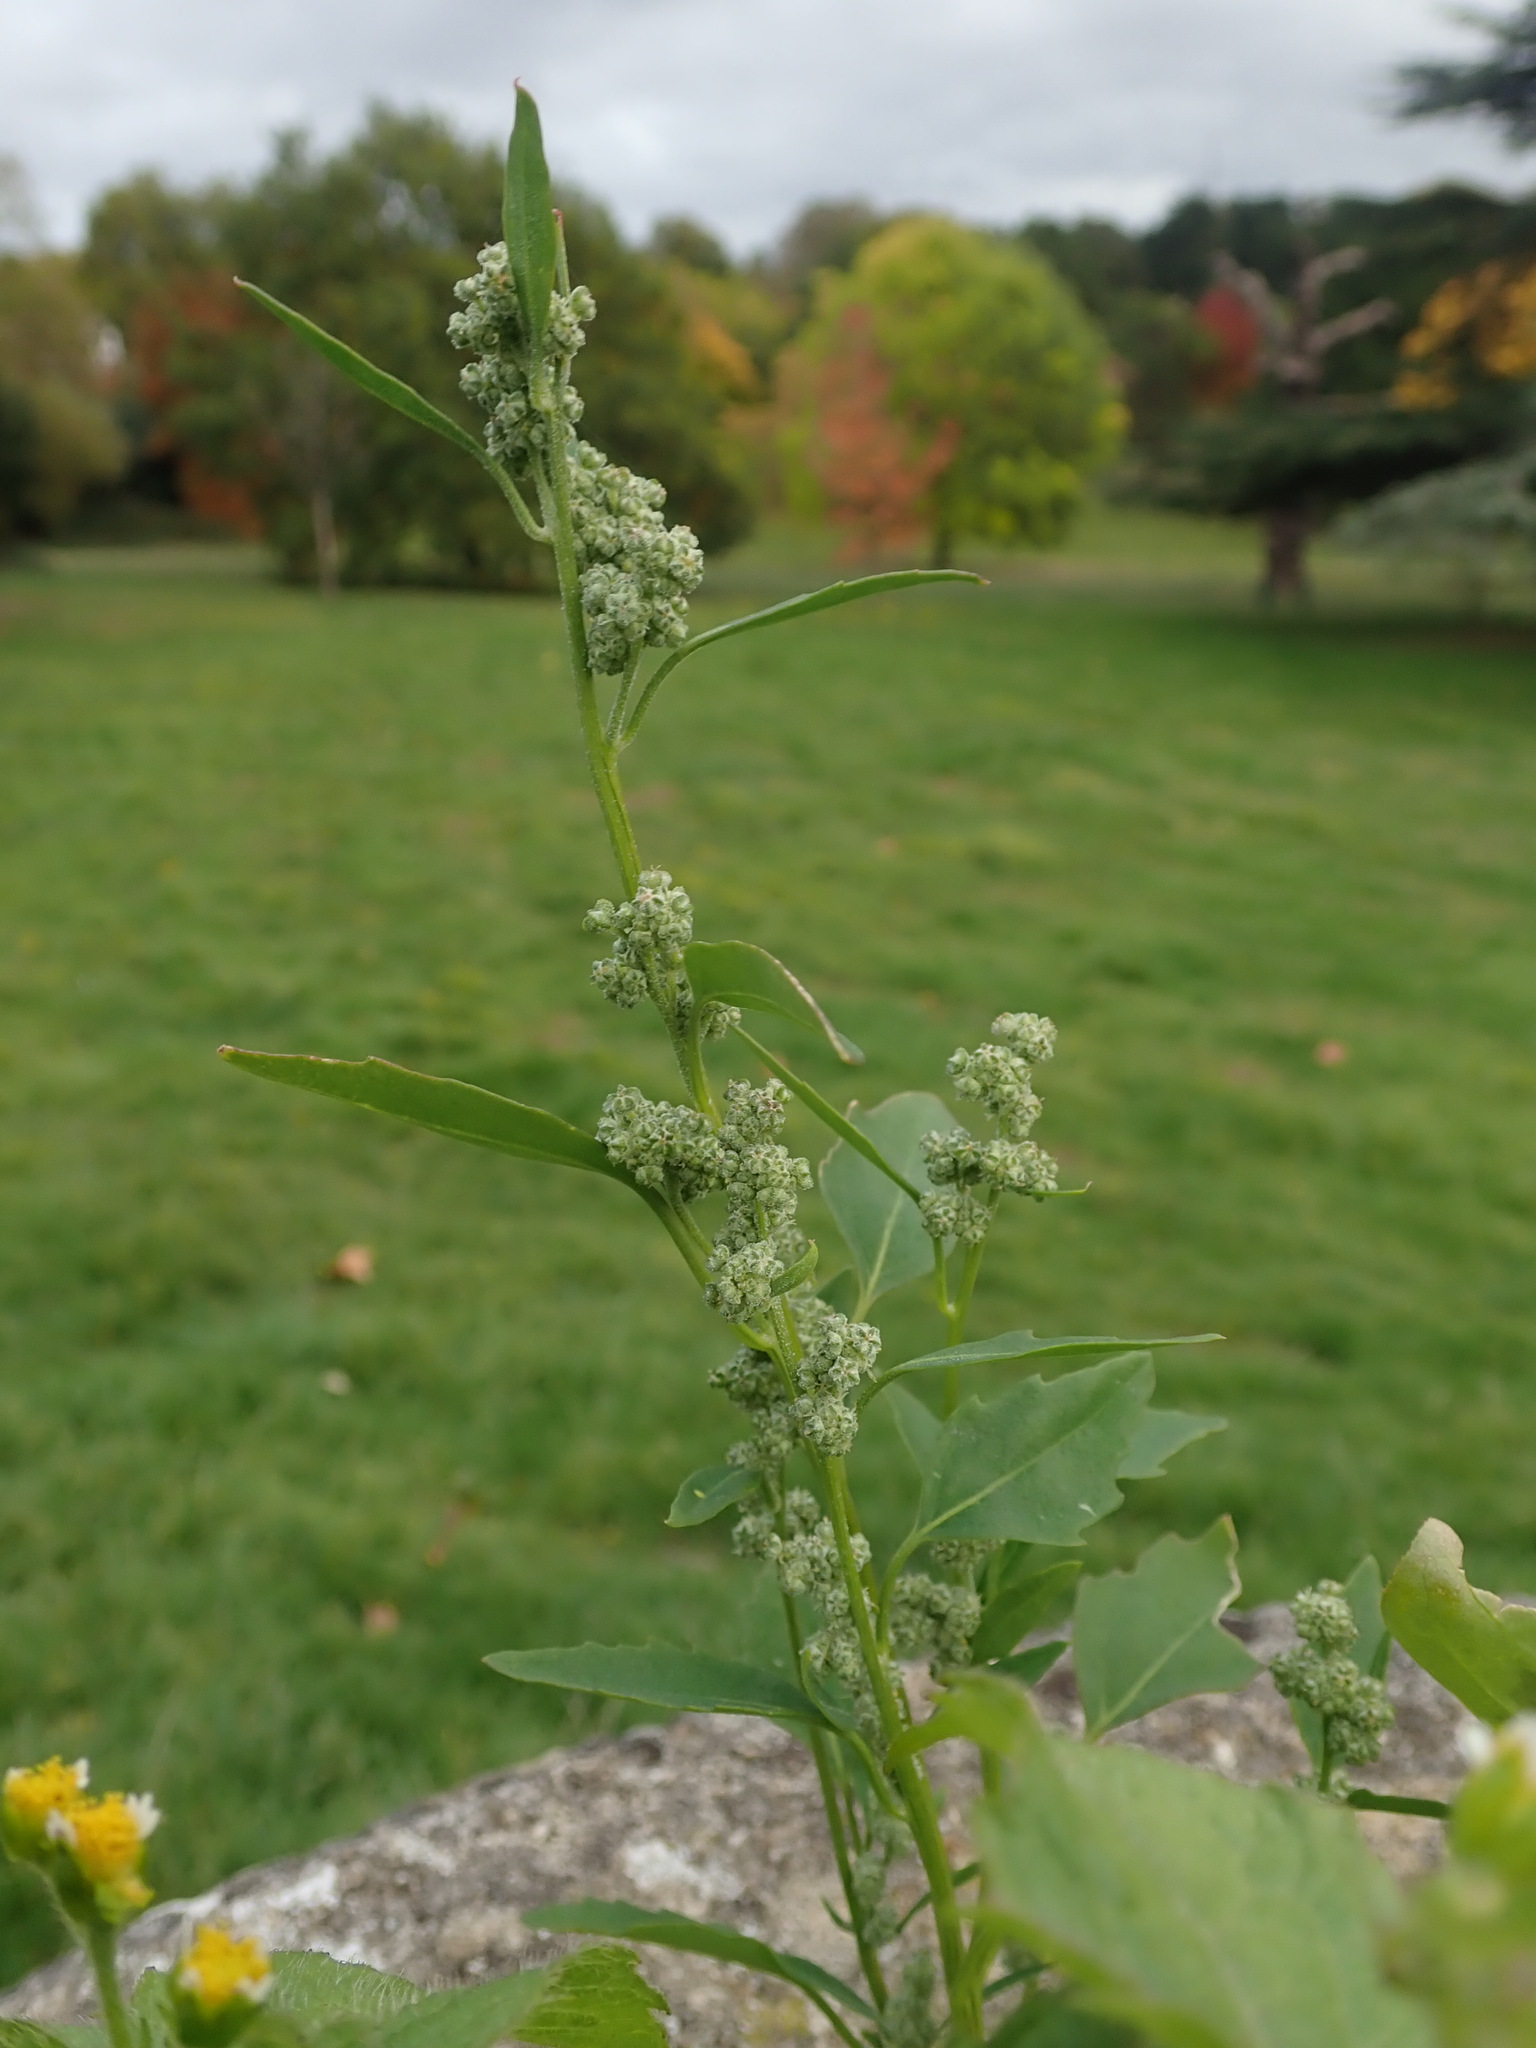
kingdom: Plantae
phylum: Tracheophyta
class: Magnoliopsida
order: Caryophyllales
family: Amaranthaceae
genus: Chenopodium
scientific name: Chenopodium album
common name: Fat-hen
